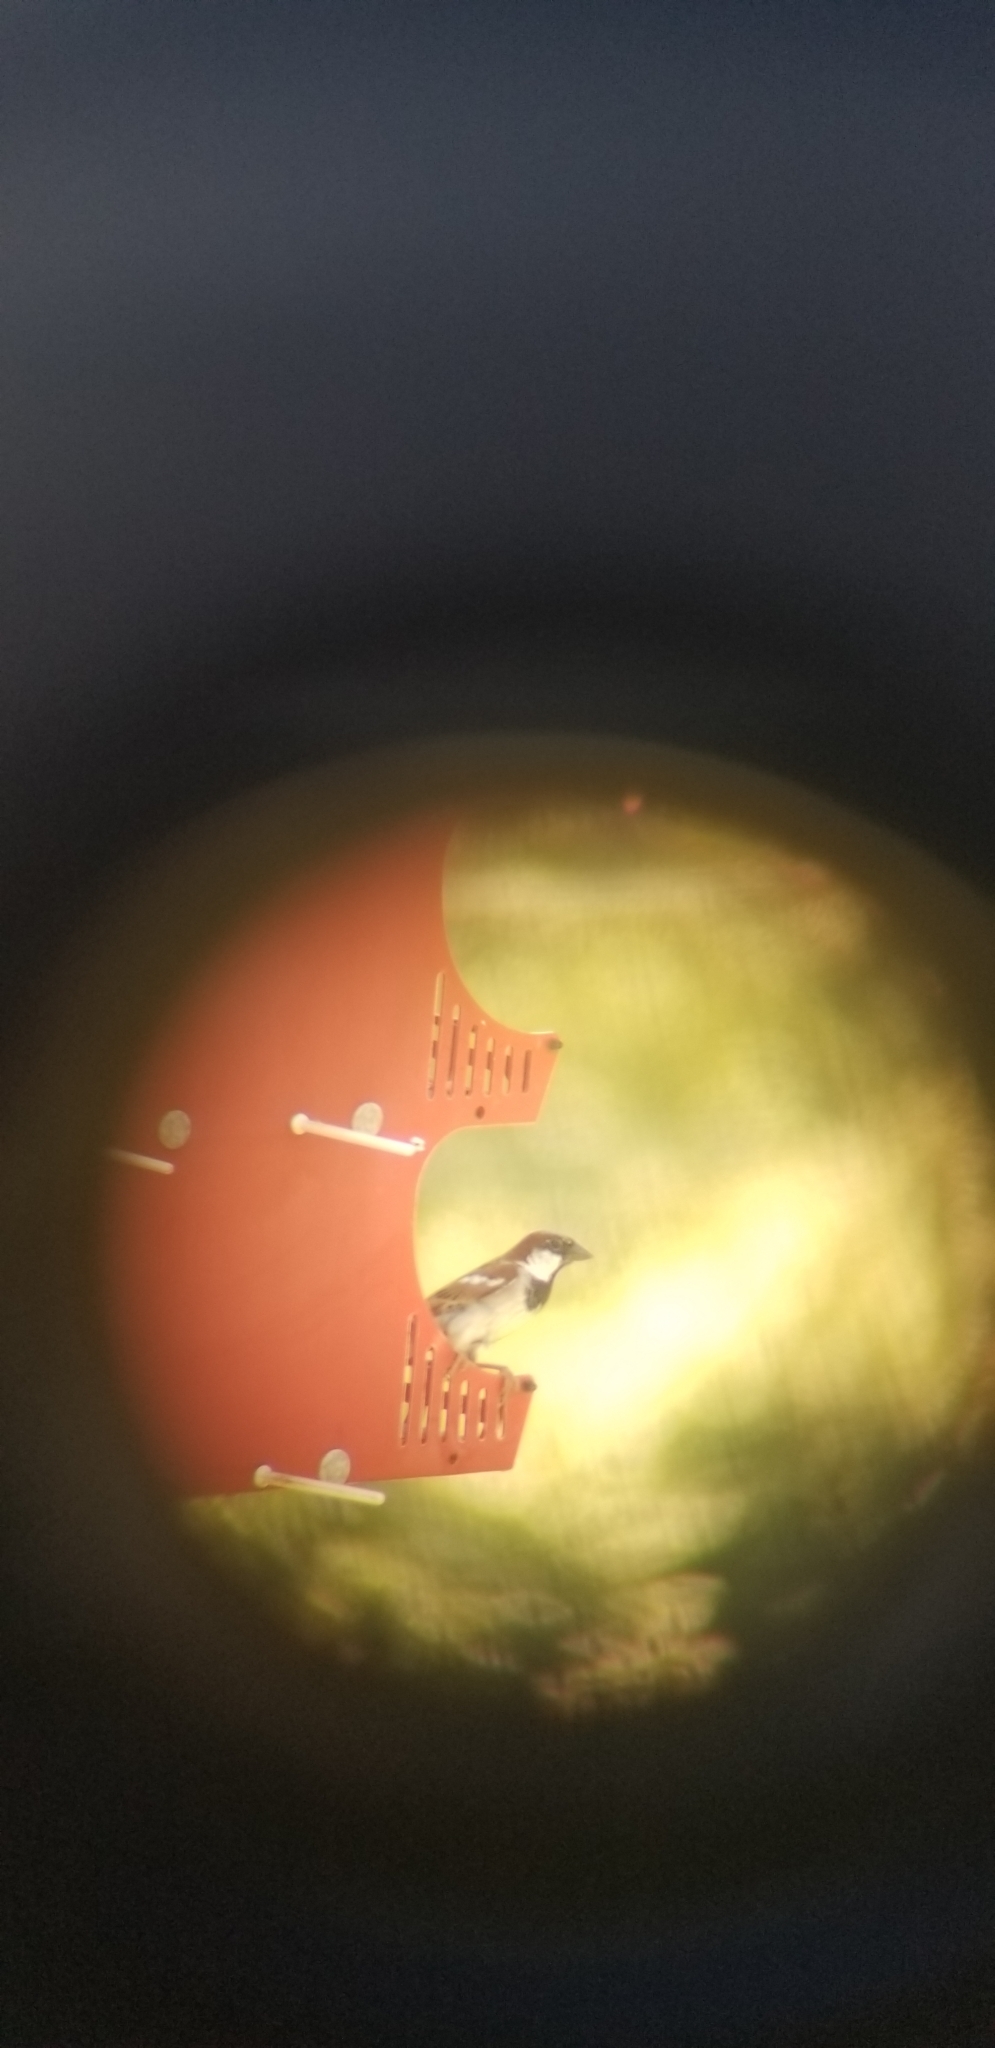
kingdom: Animalia
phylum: Chordata
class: Aves
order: Passeriformes
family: Passeridae
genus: Passer
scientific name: Passer domesticus
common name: House sparrow
